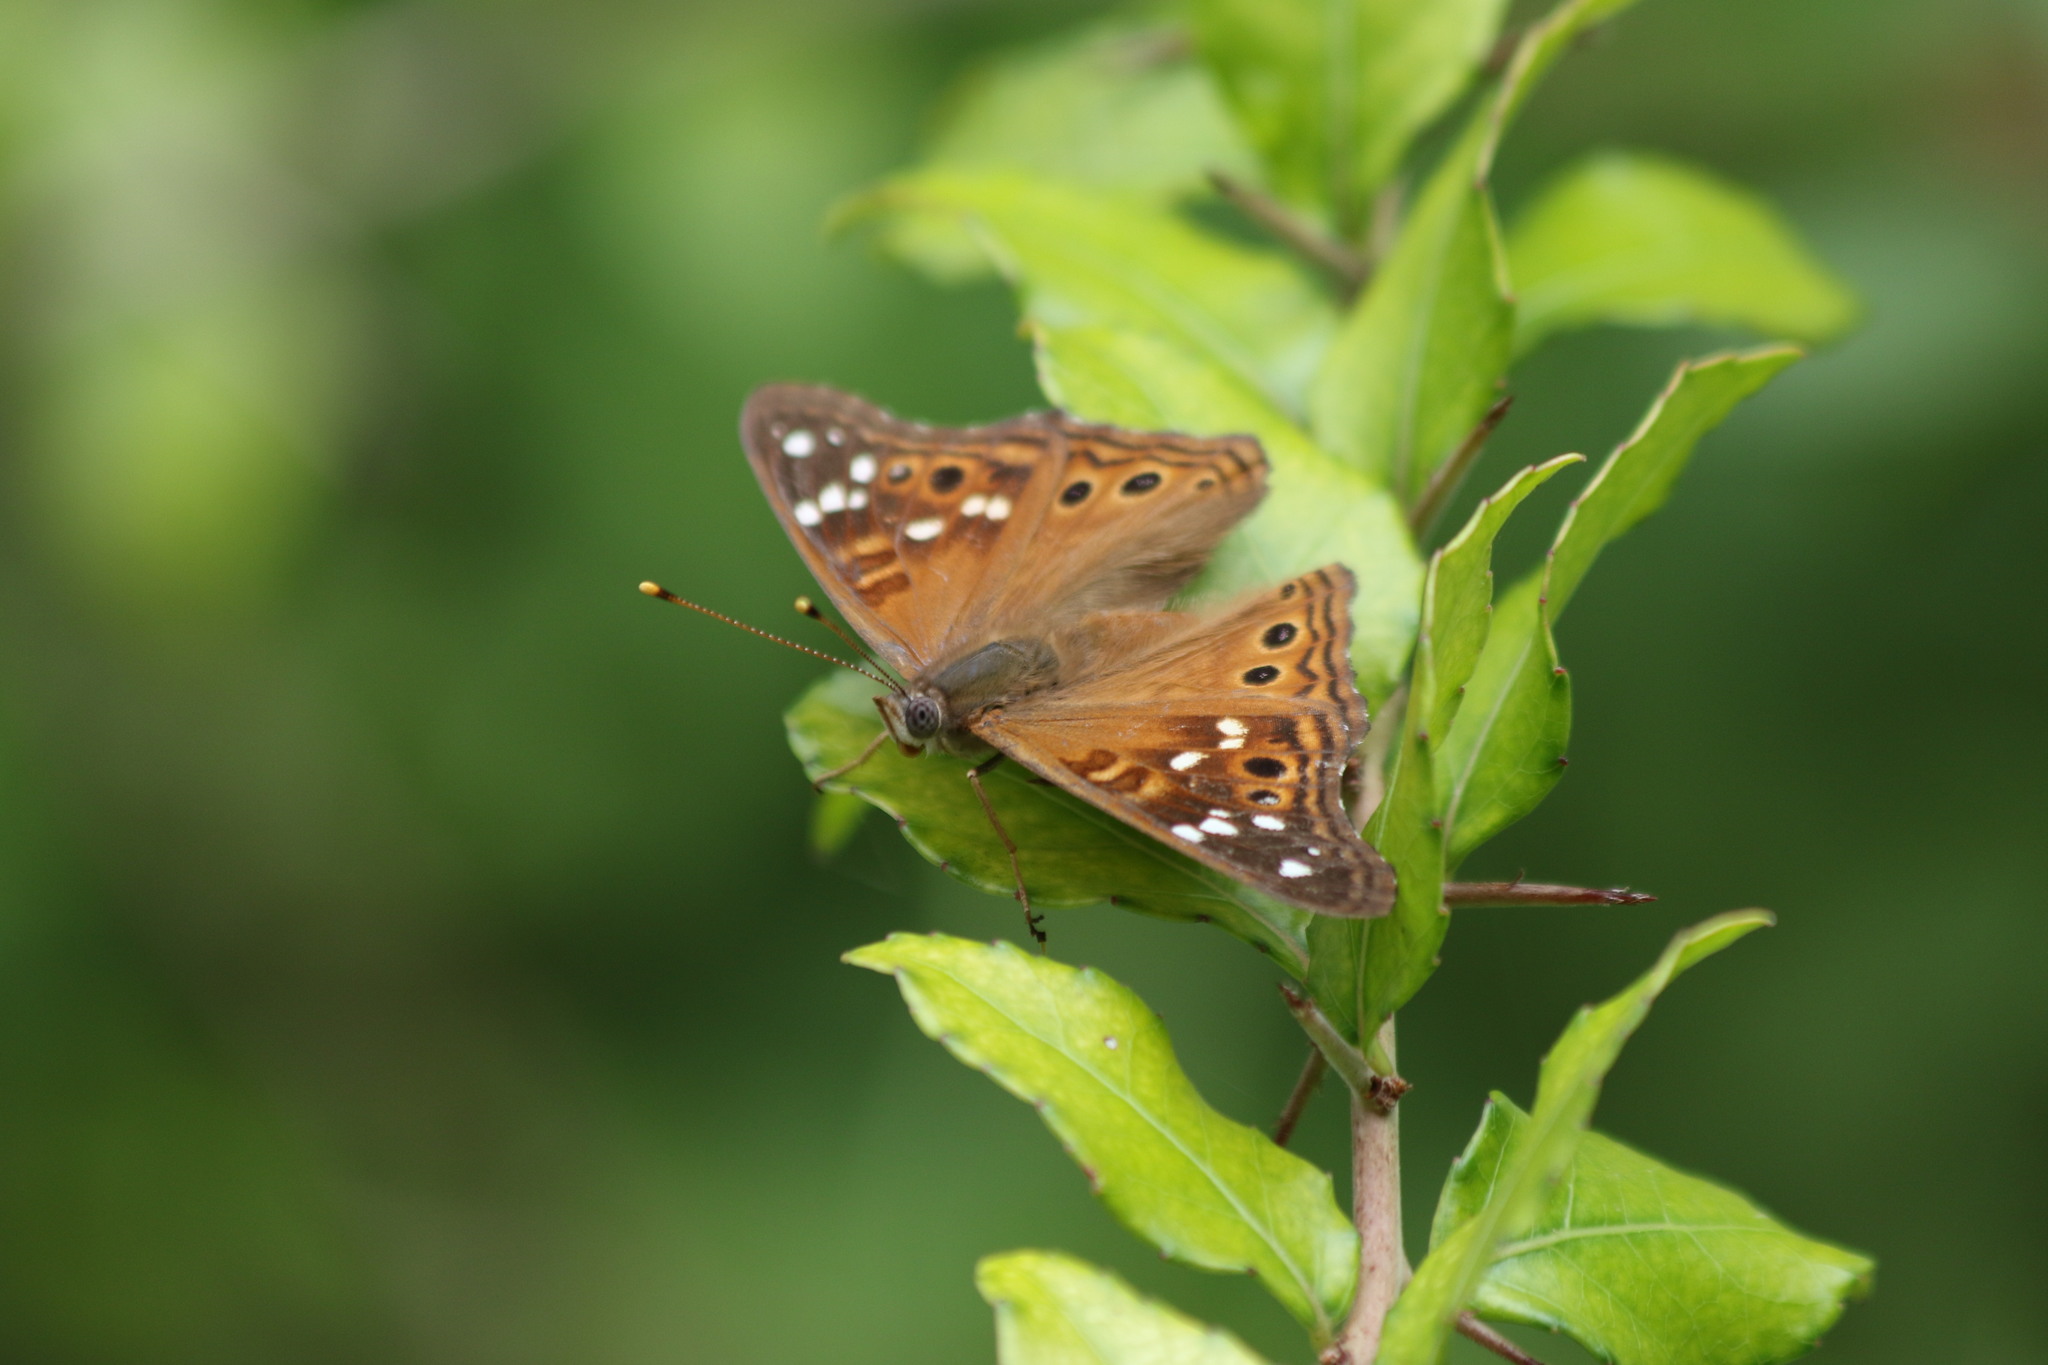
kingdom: Animalia
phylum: Arthropoda
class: Insecta
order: Lepidoptera
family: Nymphalidae
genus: Asterocampa
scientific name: Asterocampa leilia
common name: Empress leilia
